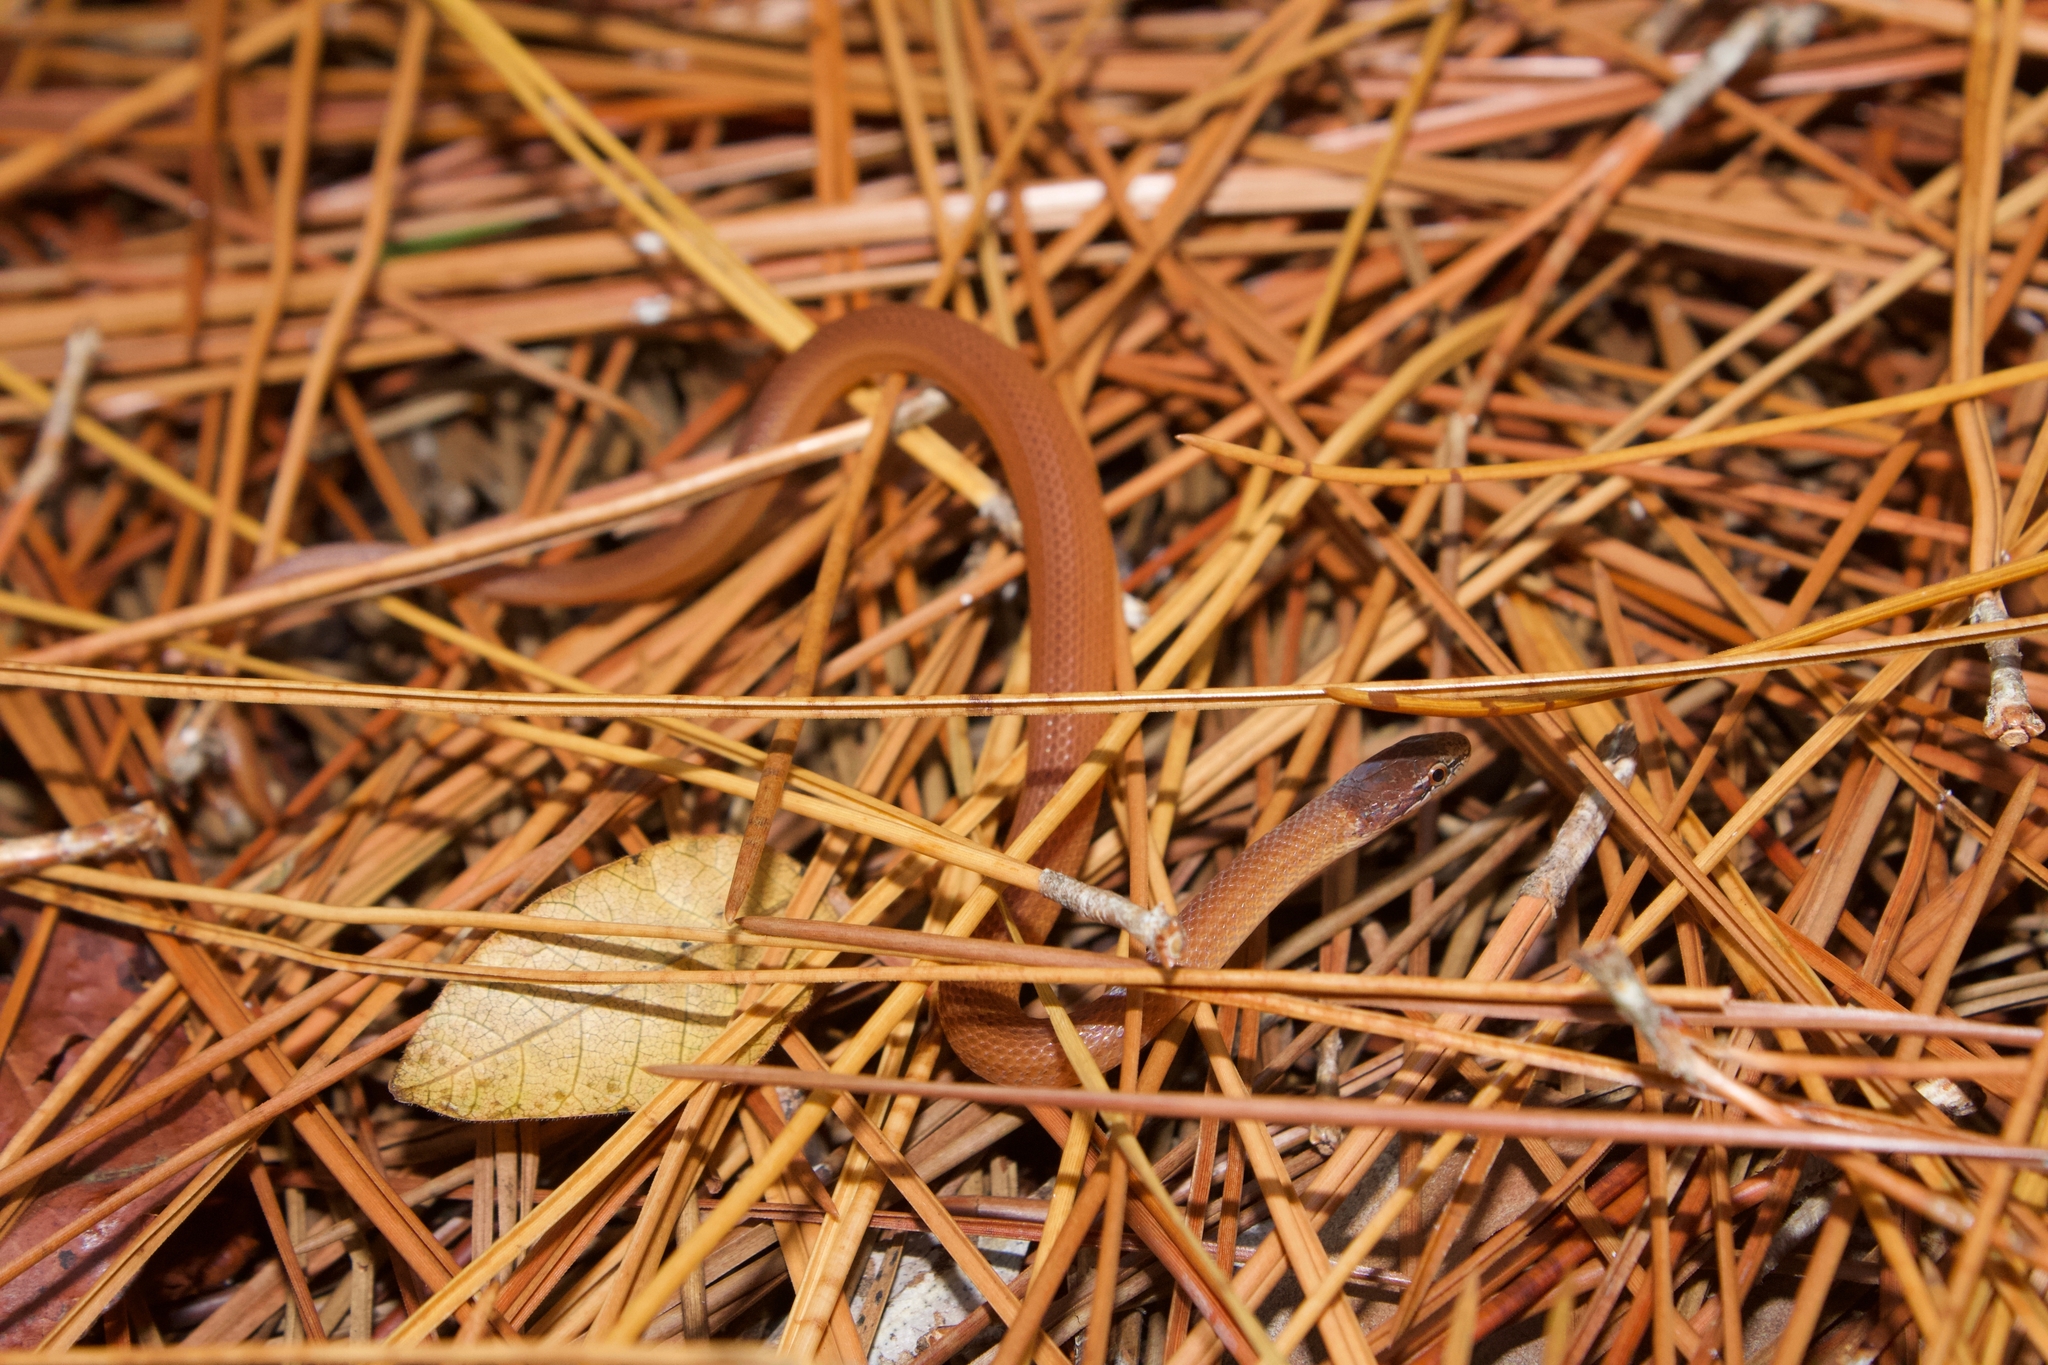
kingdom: Animalia
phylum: Chordata
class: Squamata
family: Colubridae
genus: Rhadinaea
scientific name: Rhadinaea flavilata
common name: Pine woods littersnake
